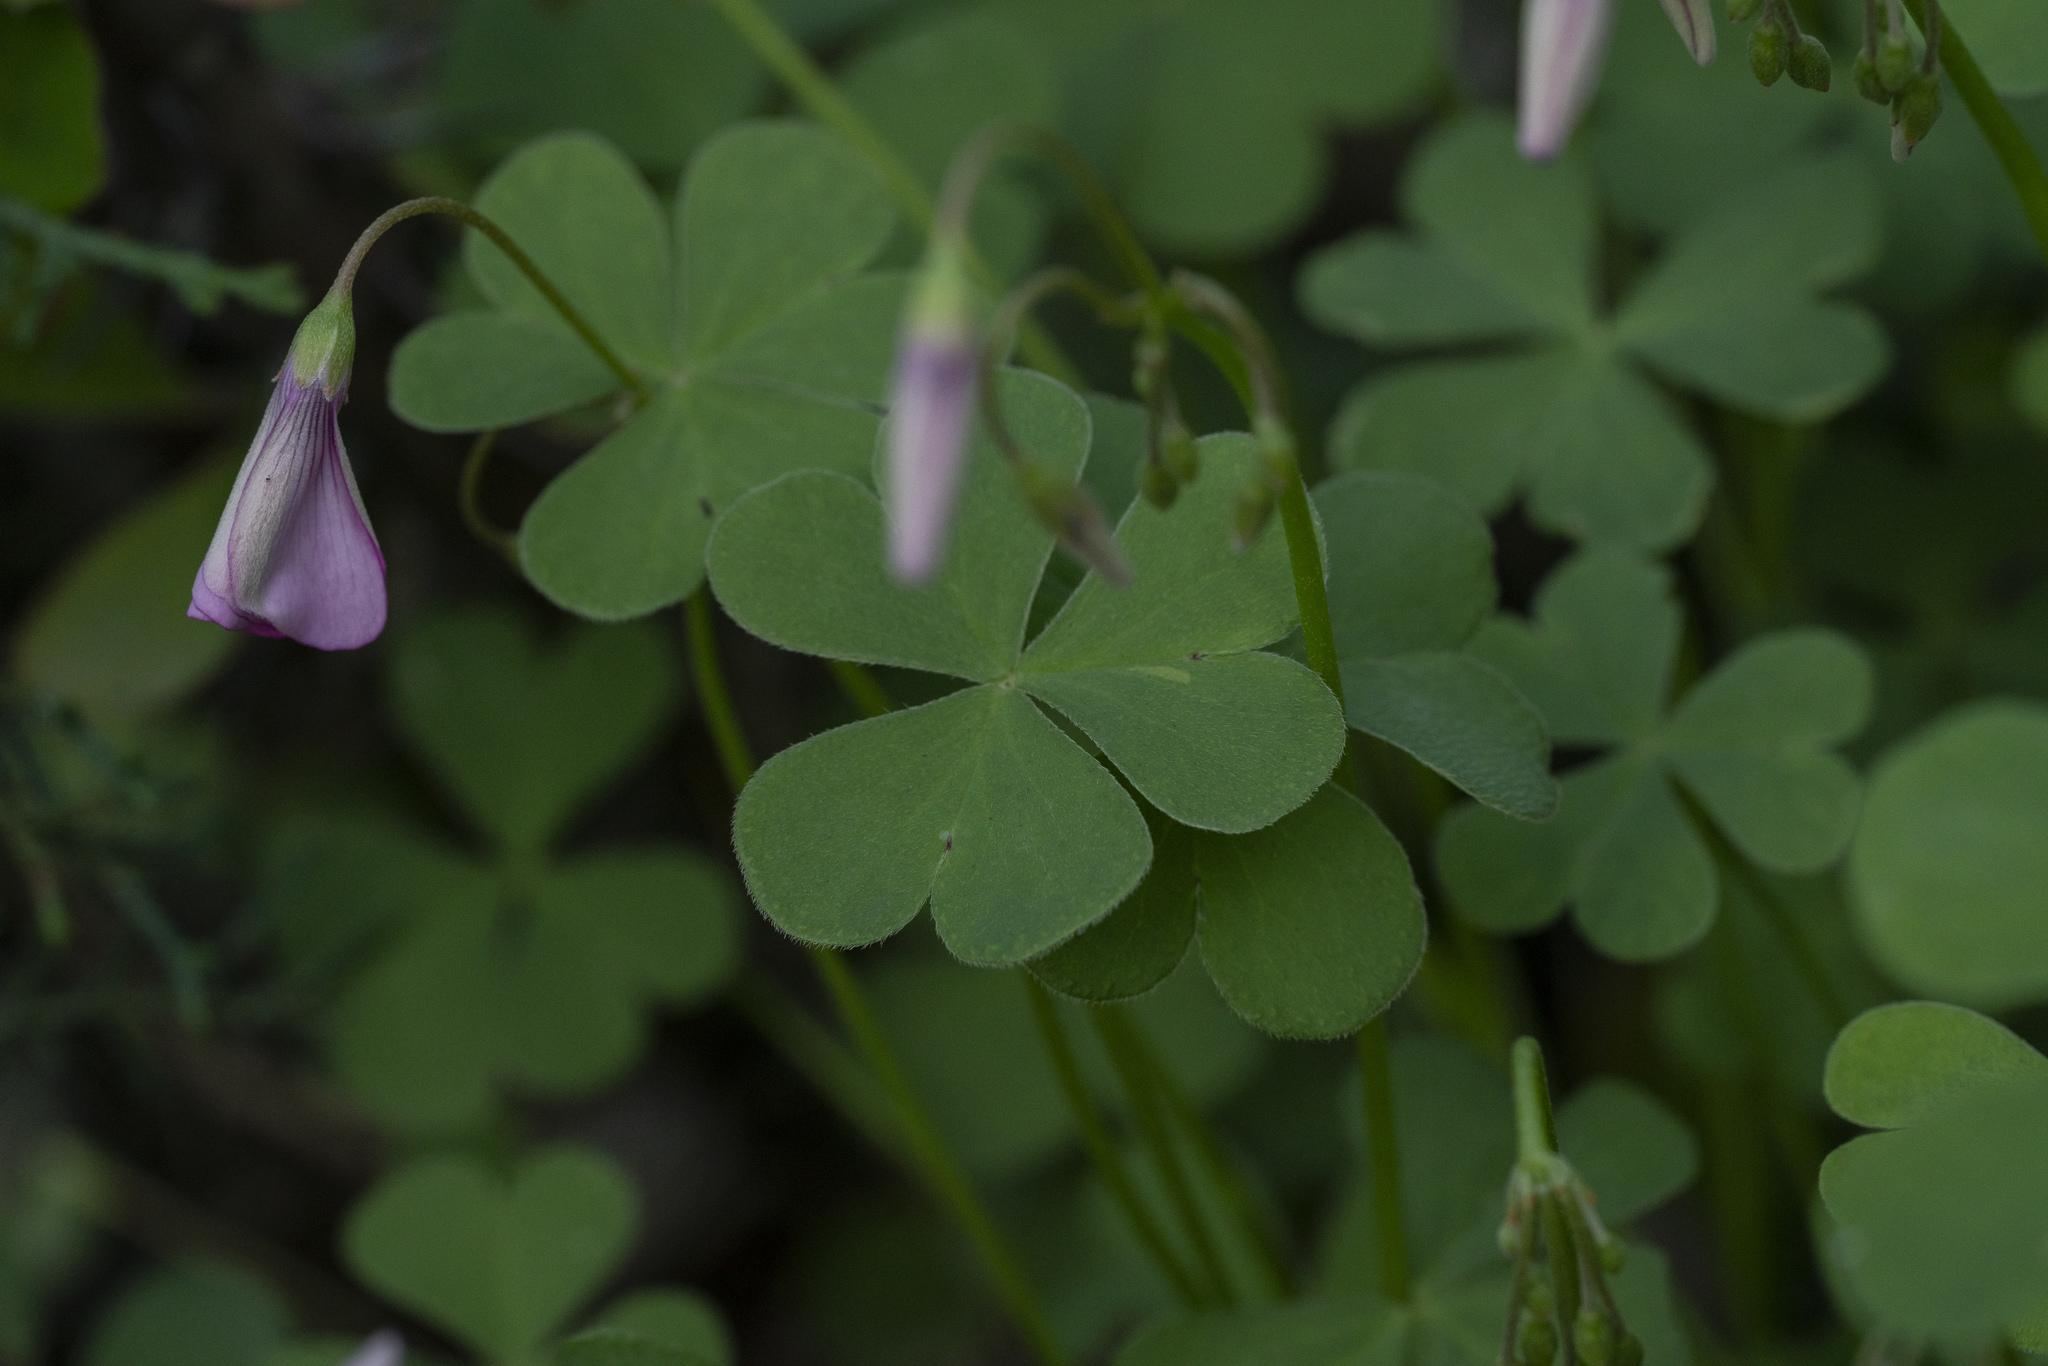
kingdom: Plantae
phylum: Tracheophyta
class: Magnoliopsida
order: Oxalidales
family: Oxalidaceae
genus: Oxalis
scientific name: Oxalis articulata
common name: Pink-sorrel
